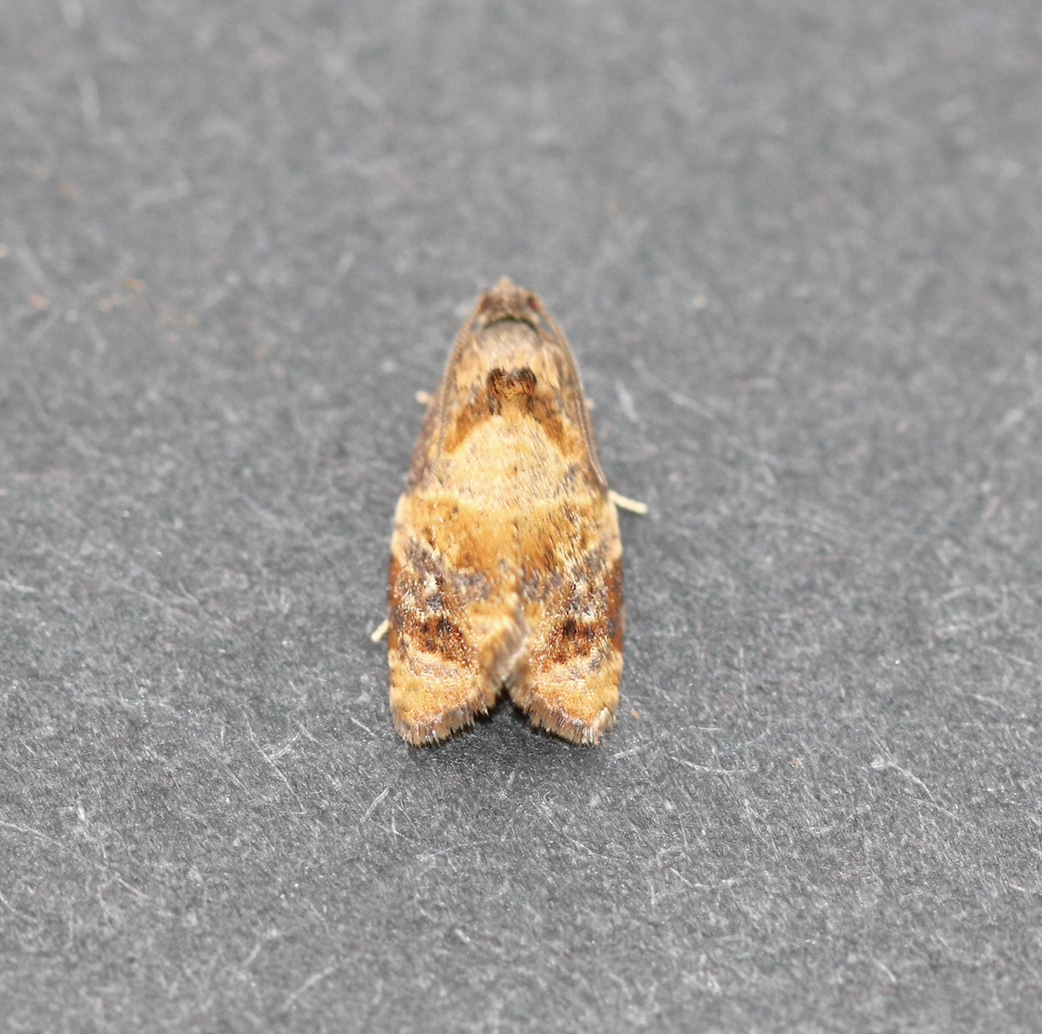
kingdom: Animalia
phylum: Arthropoda
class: Insecta
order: Lepidoptera
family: Tortricidae
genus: Ditula
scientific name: Ditula angustiorana
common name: Red-barred tortrix
